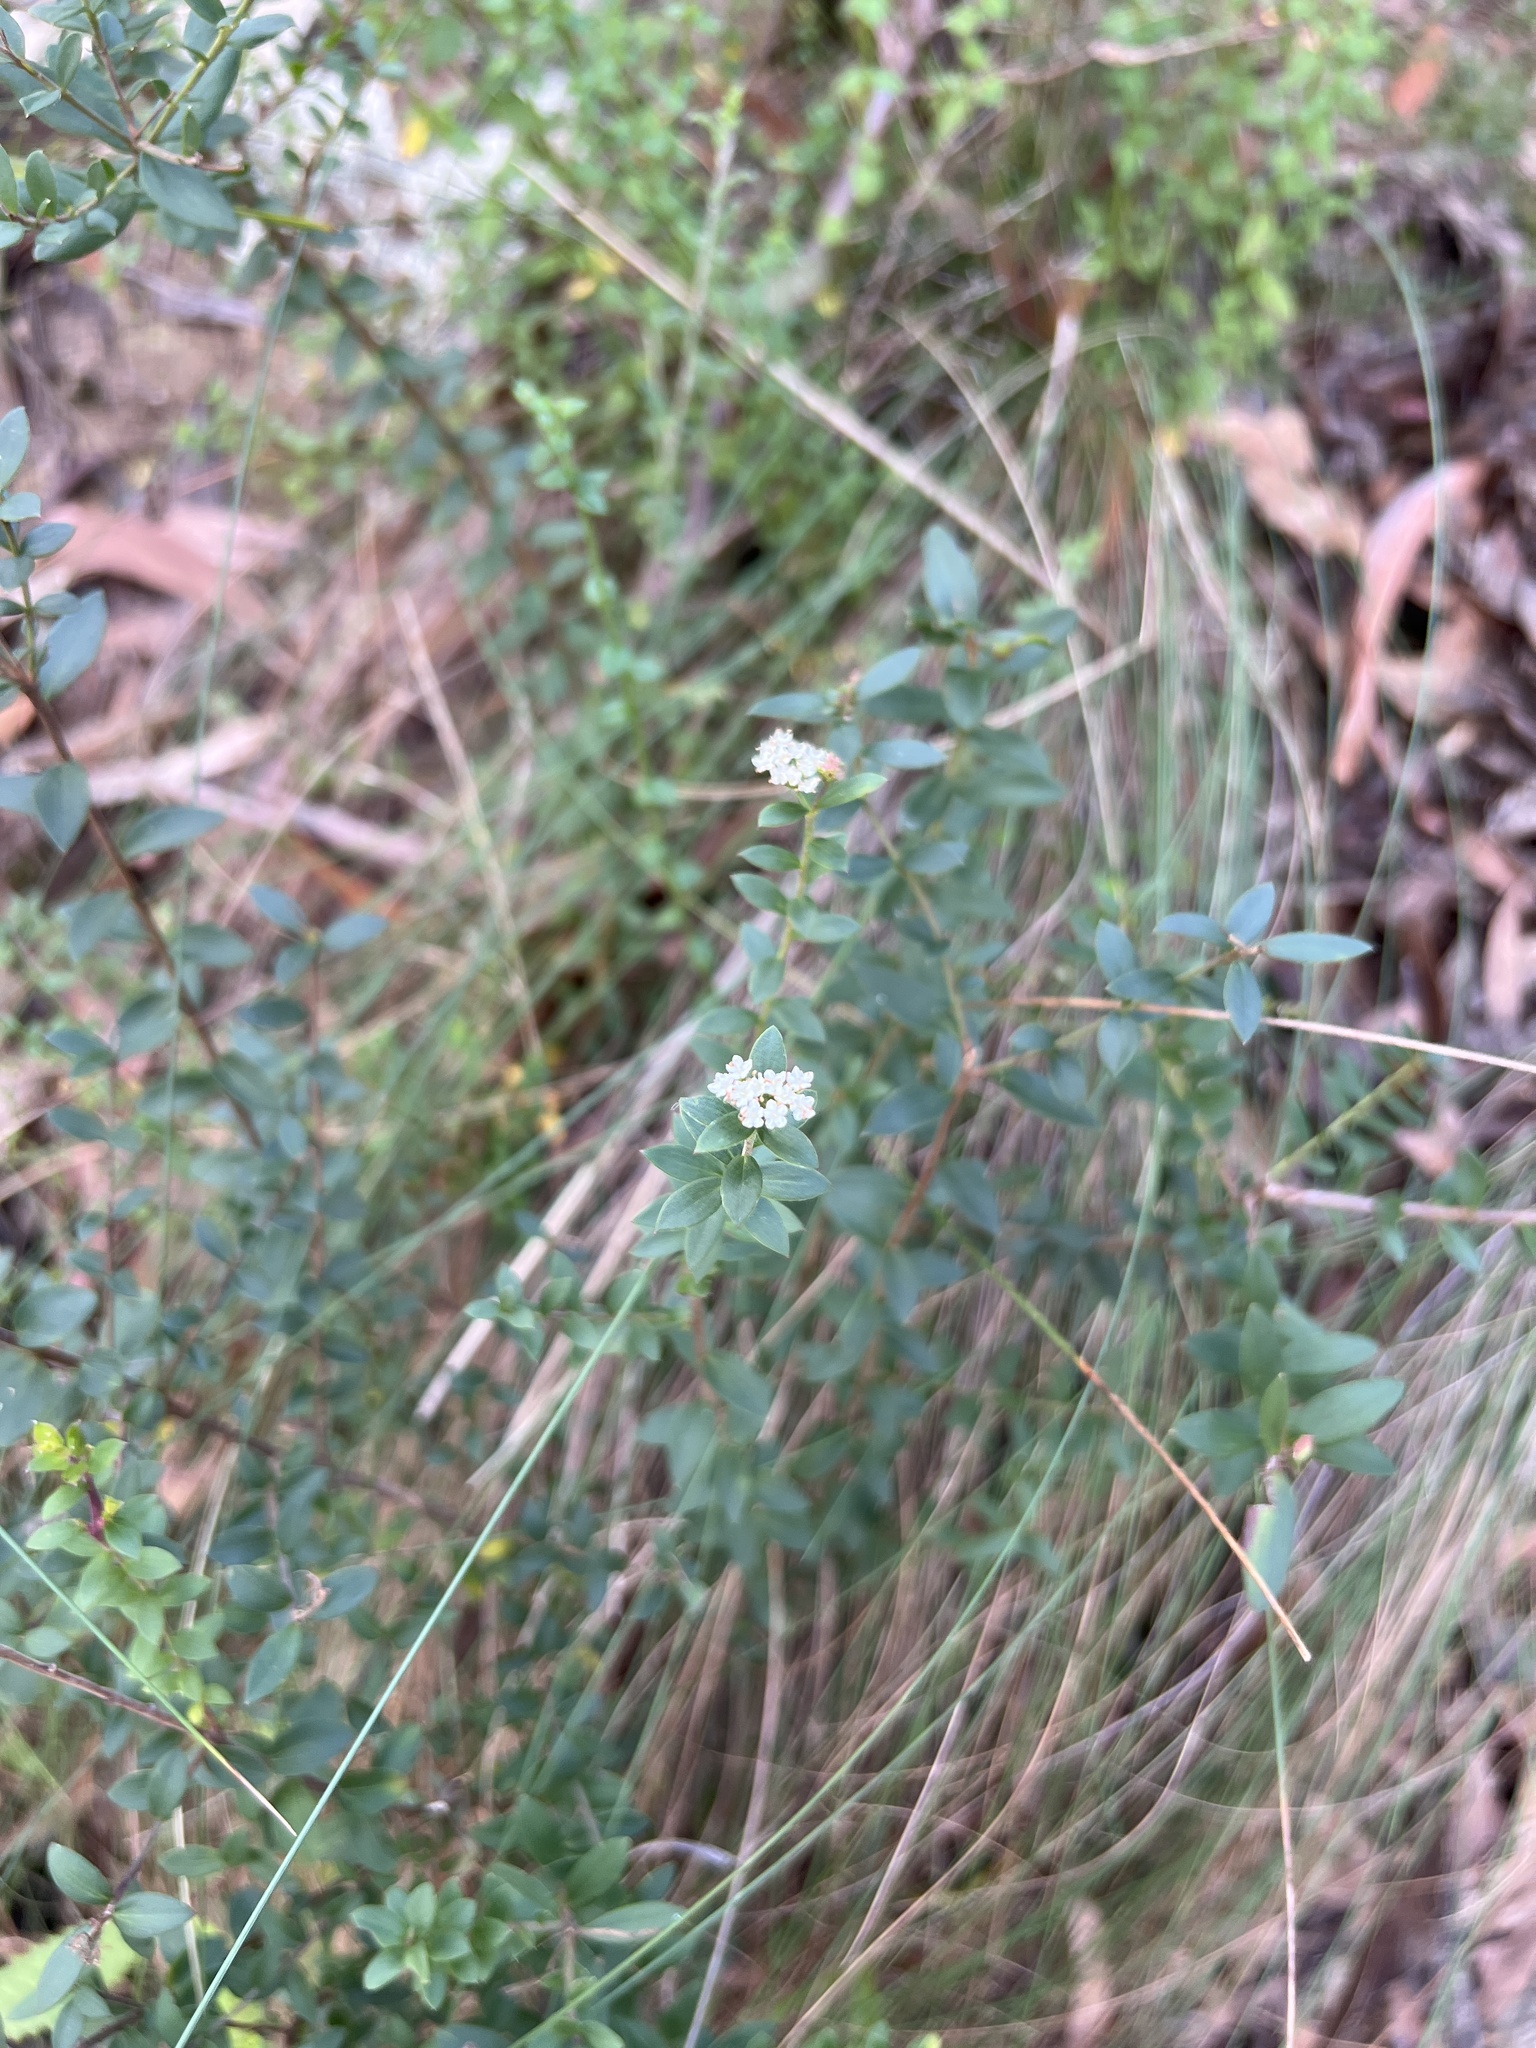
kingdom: Plantae
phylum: Tracheophyta
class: Magnoliopsida
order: Apiales
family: Apiaceae
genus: Platysace
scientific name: Platysace lanceolata
